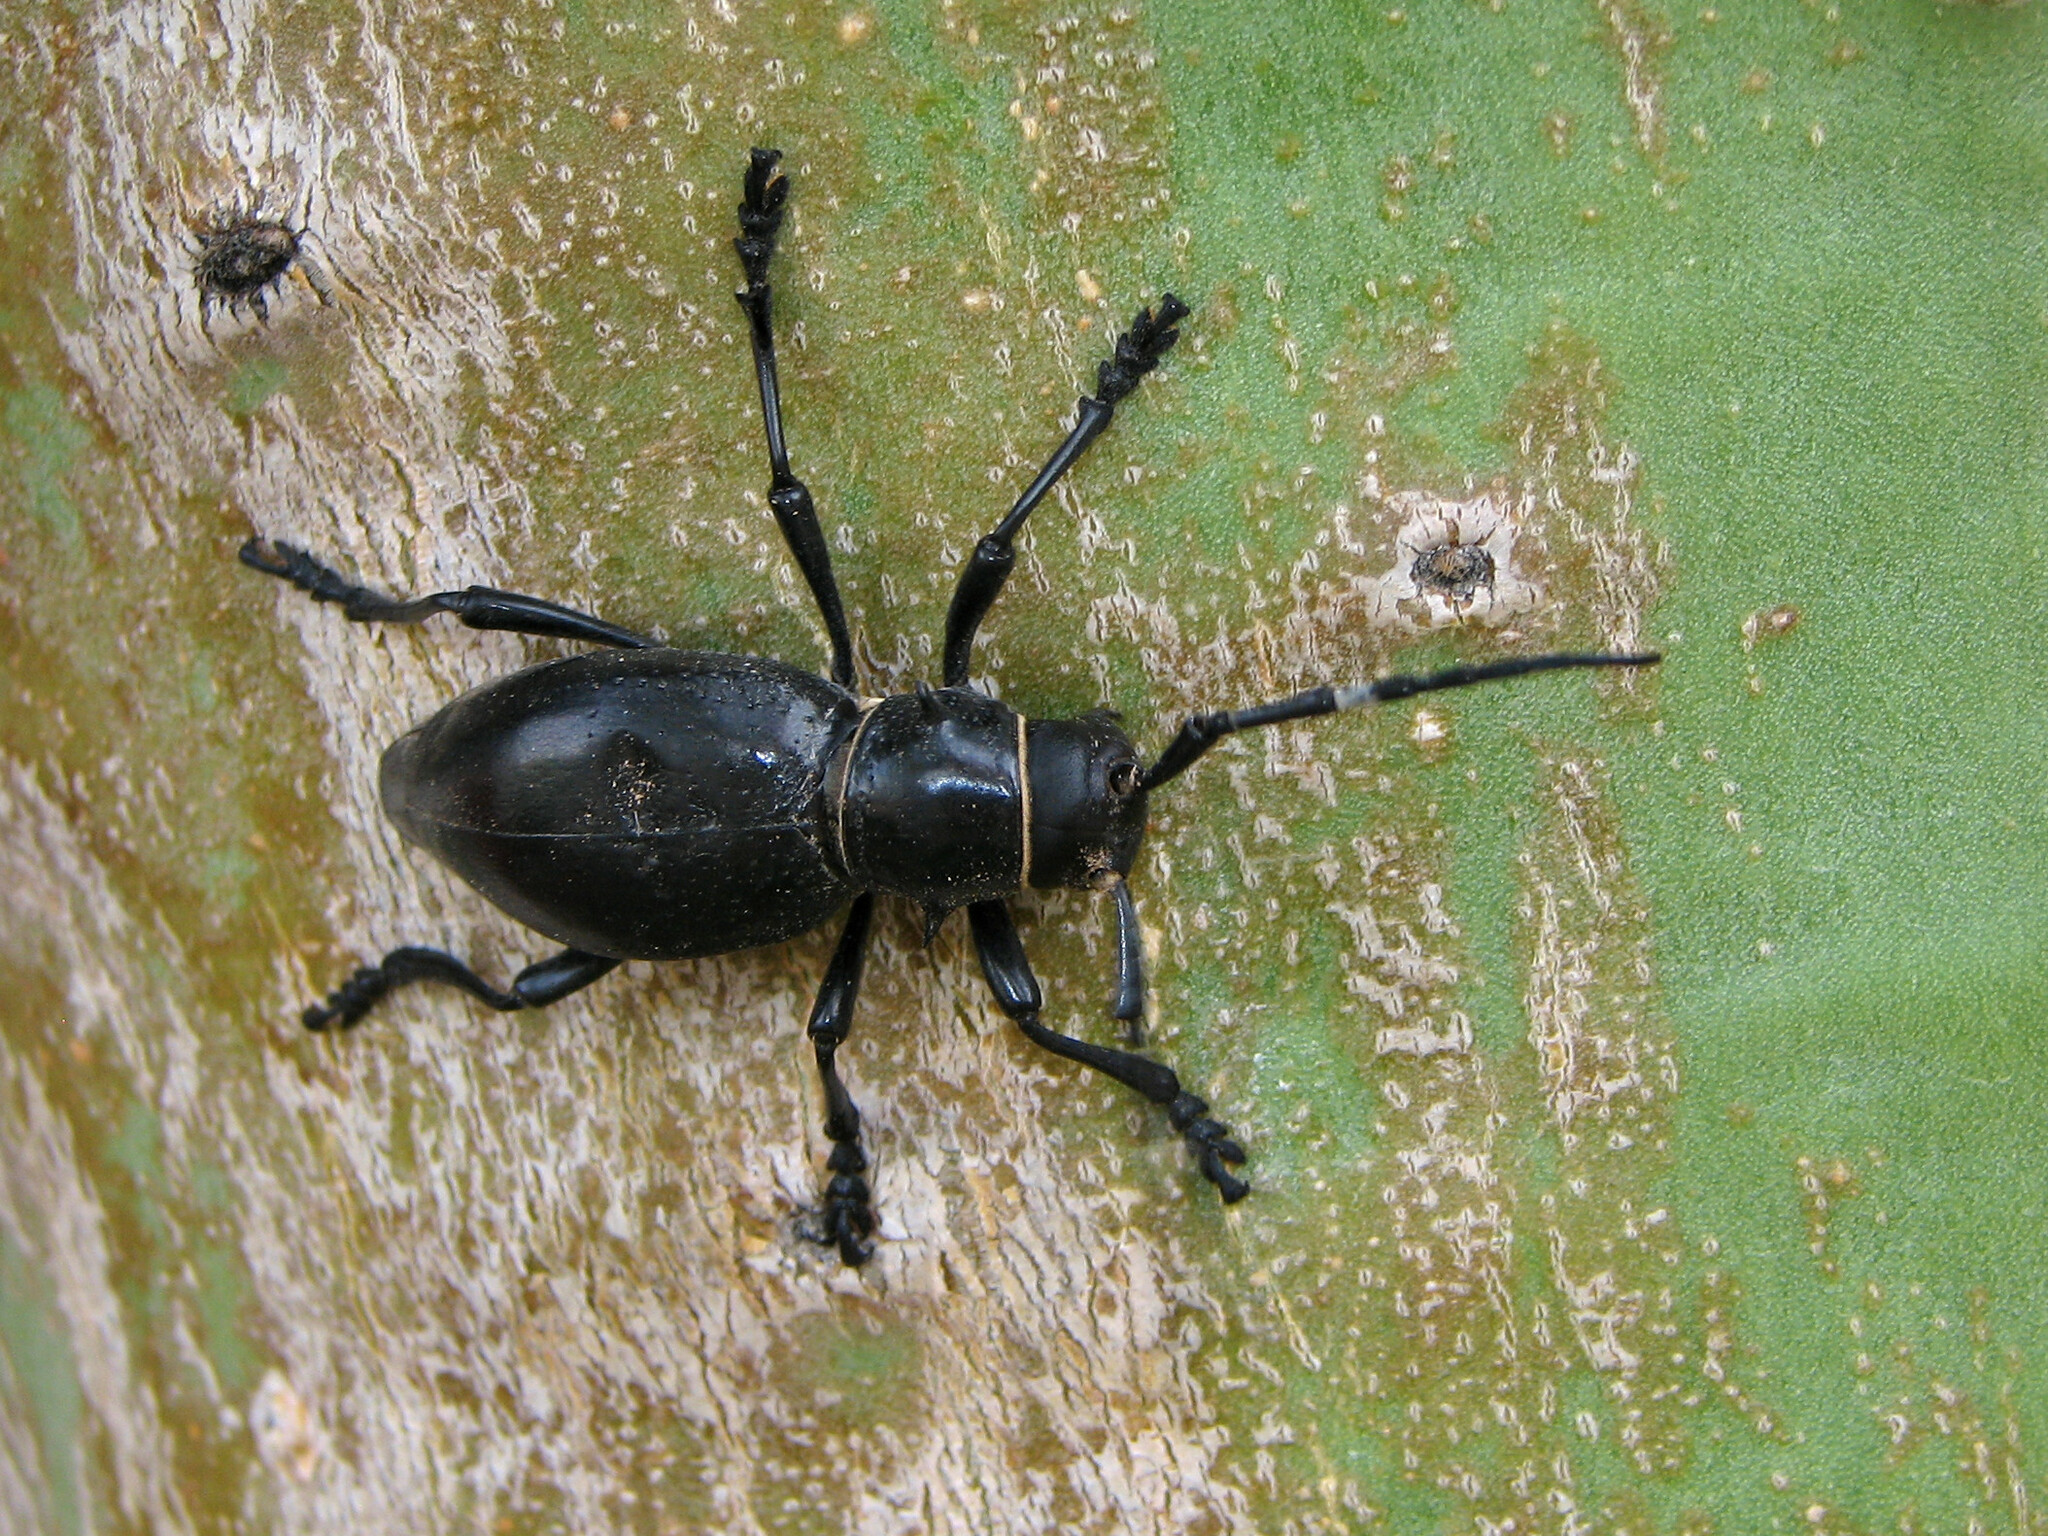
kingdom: Animalia
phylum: Arthropoda
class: Insecta
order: Coleoptera
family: Cerambycidae
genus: Moneilema
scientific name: Moneilema gigas
